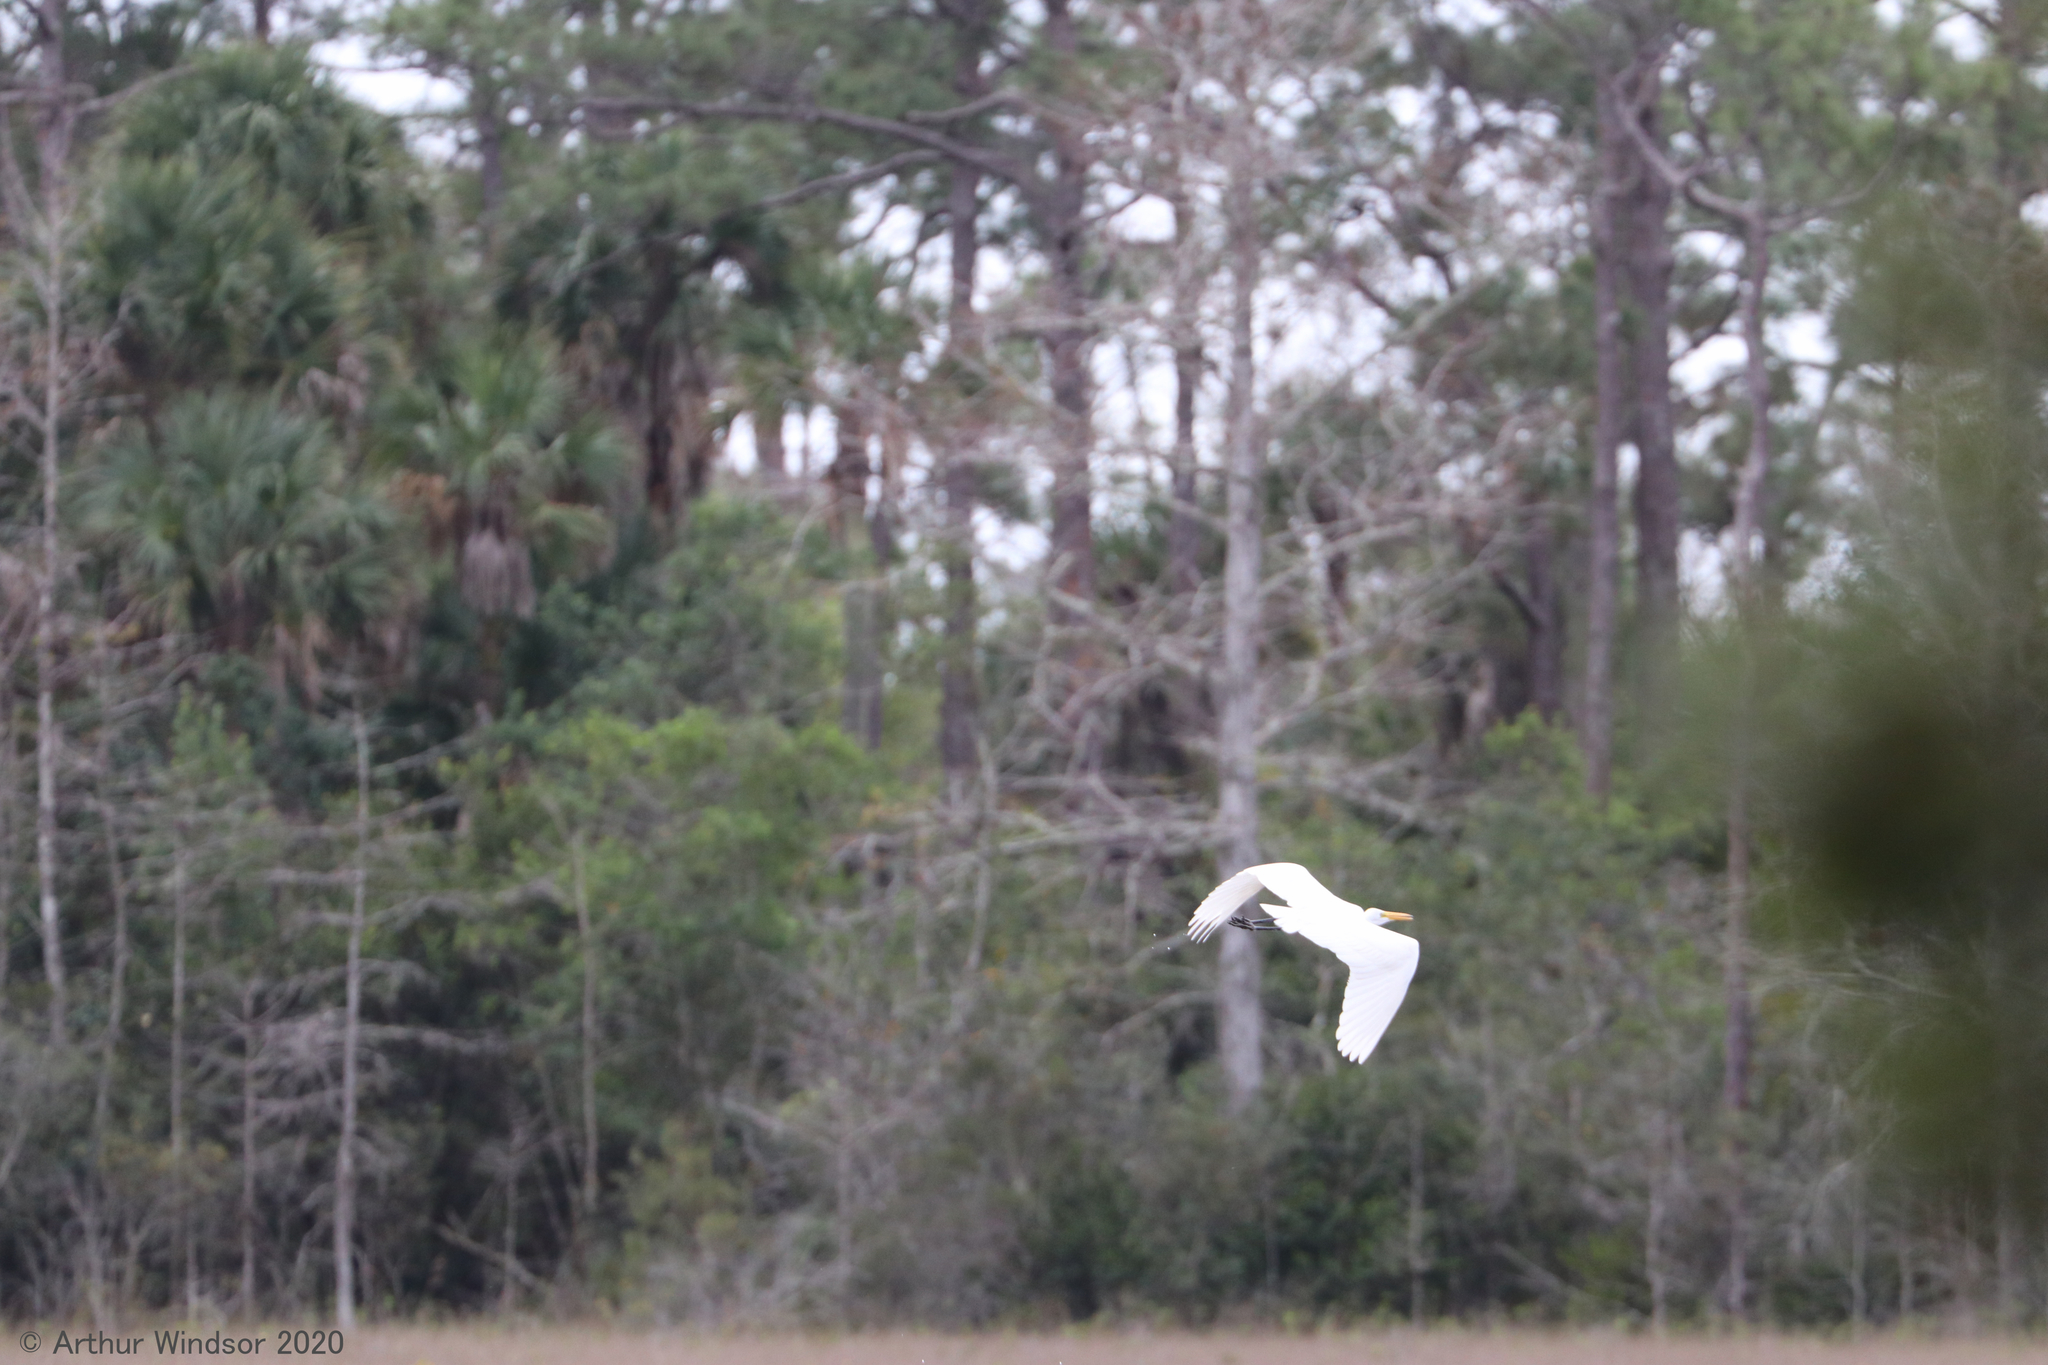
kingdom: Animalia
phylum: Chordata
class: Aves
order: Pelecaniformes
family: Ardeidae
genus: Ardea
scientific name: Ardea alba
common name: Great egret
